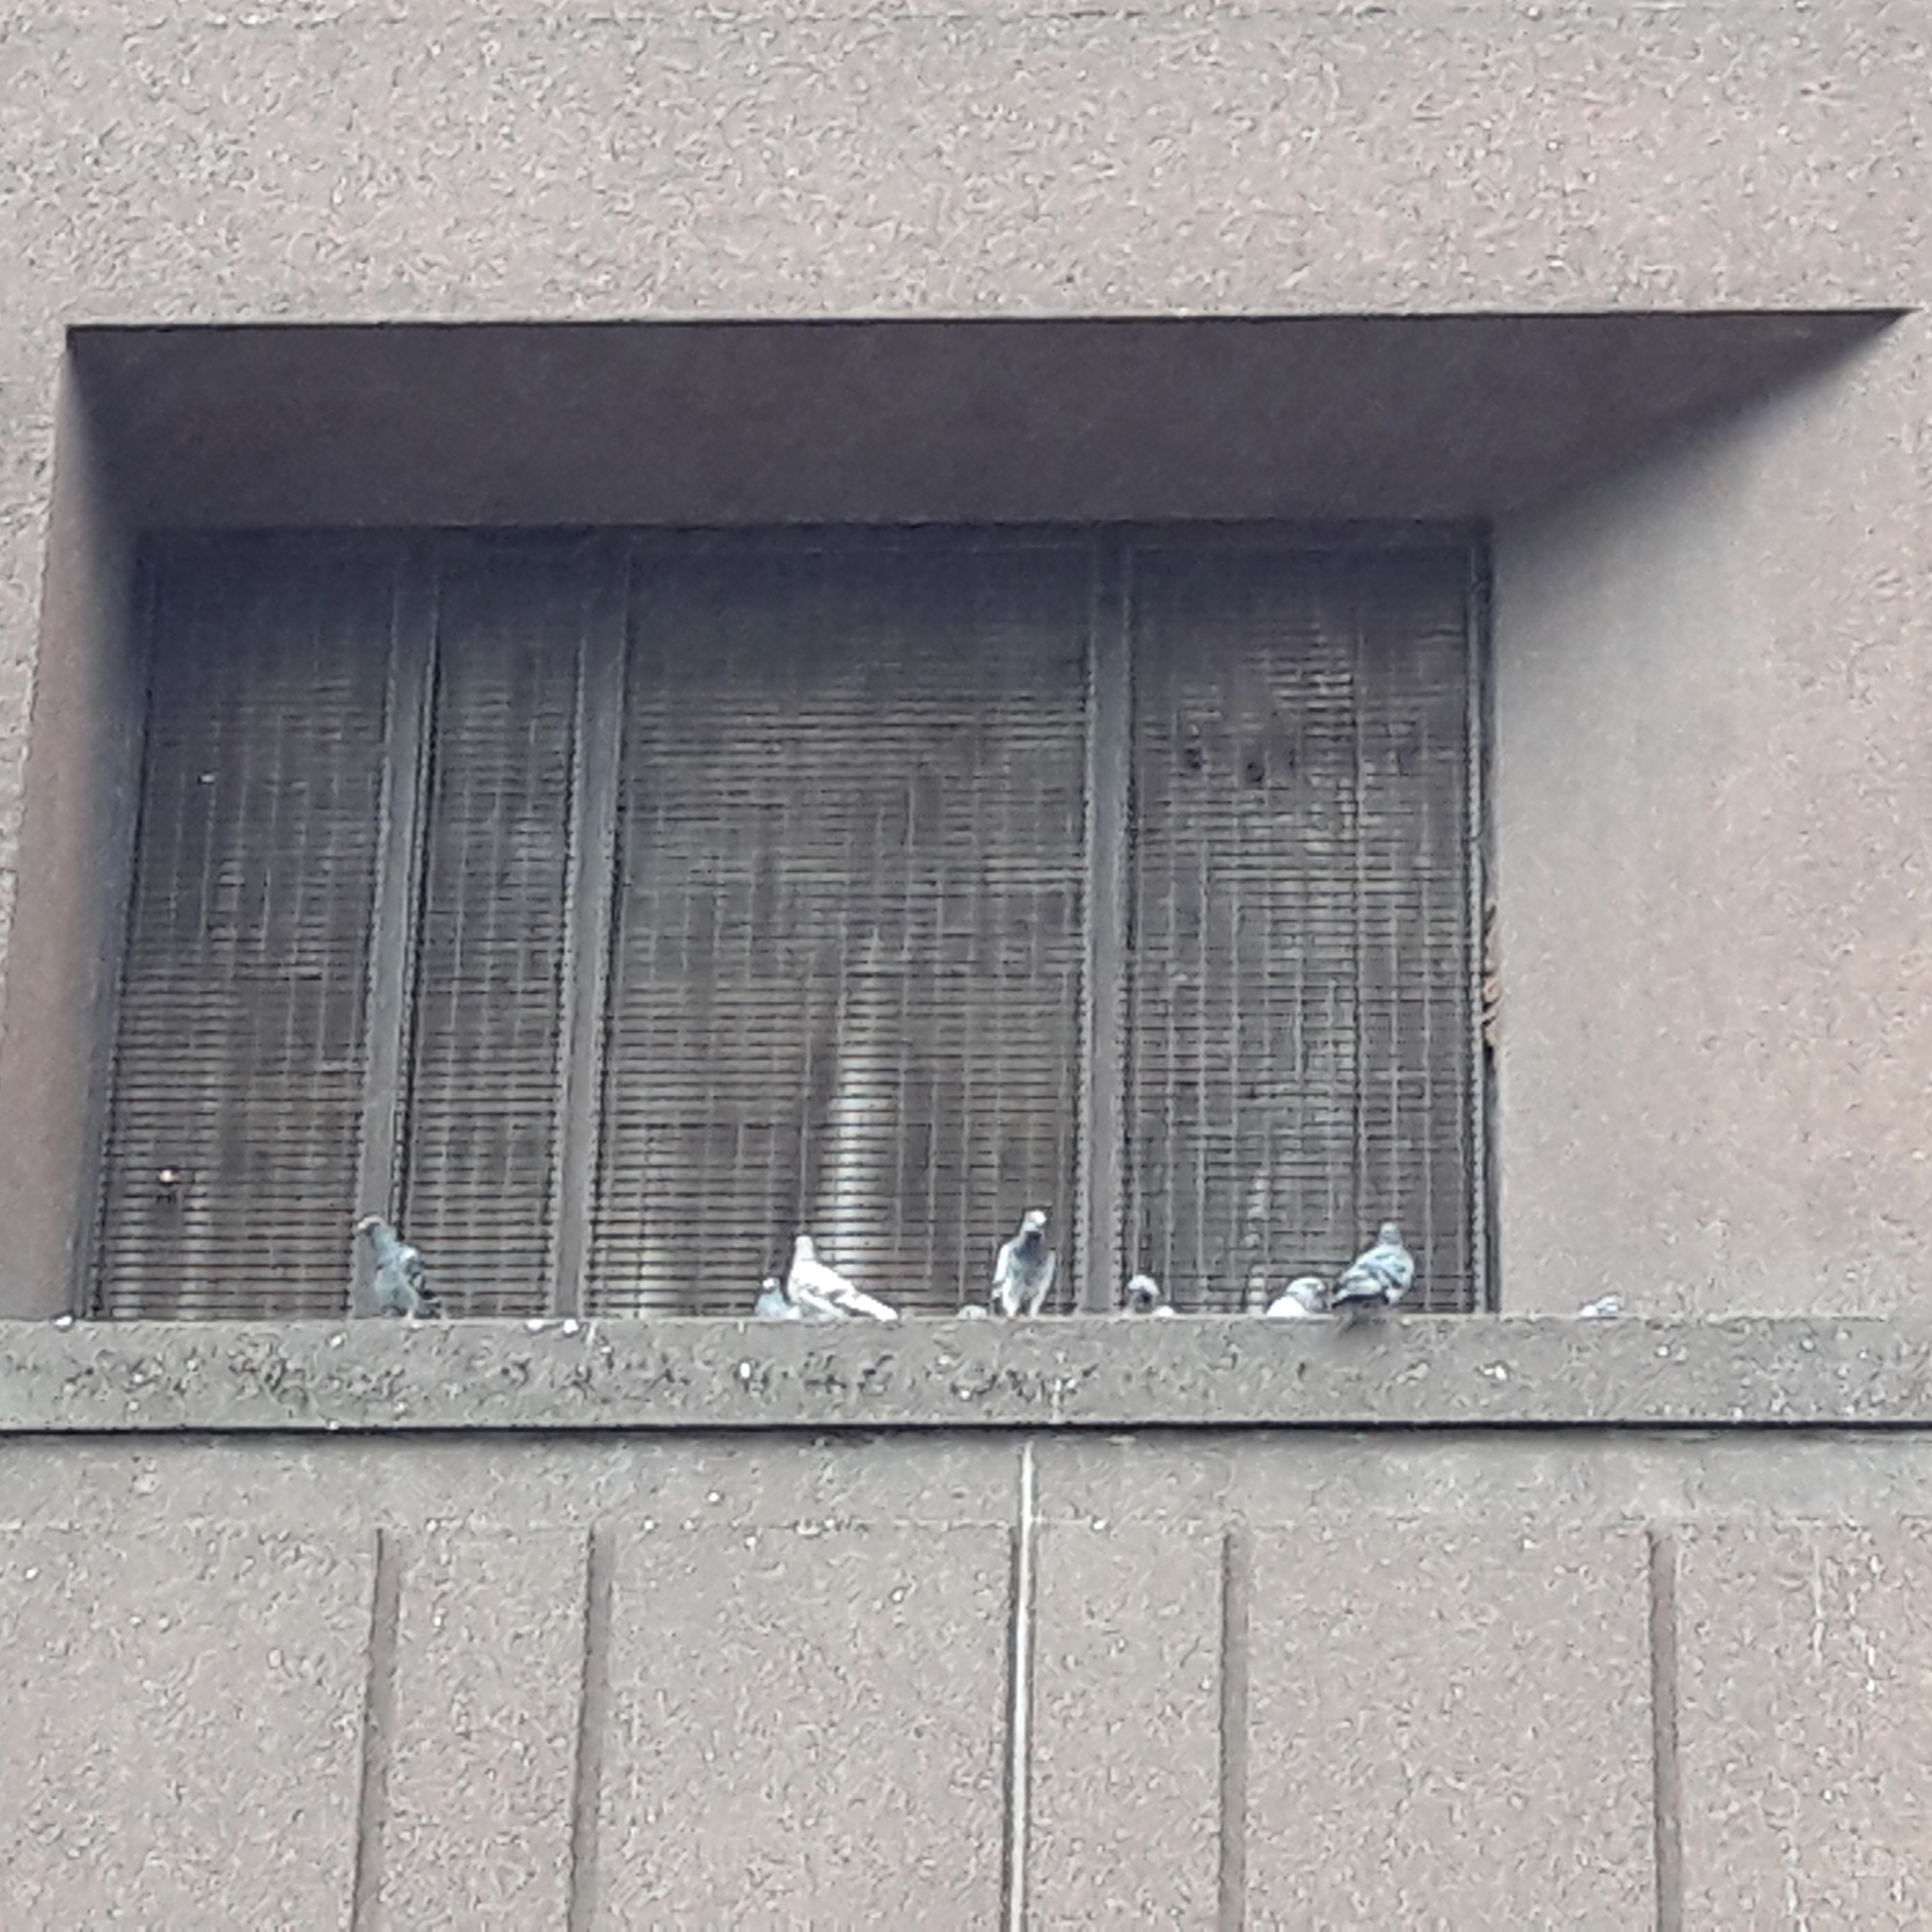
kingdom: Animalia
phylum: Chordata
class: Aves
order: Columbiformes
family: Columbidae
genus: Columba
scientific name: Columba livia
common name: Rock pigeon
